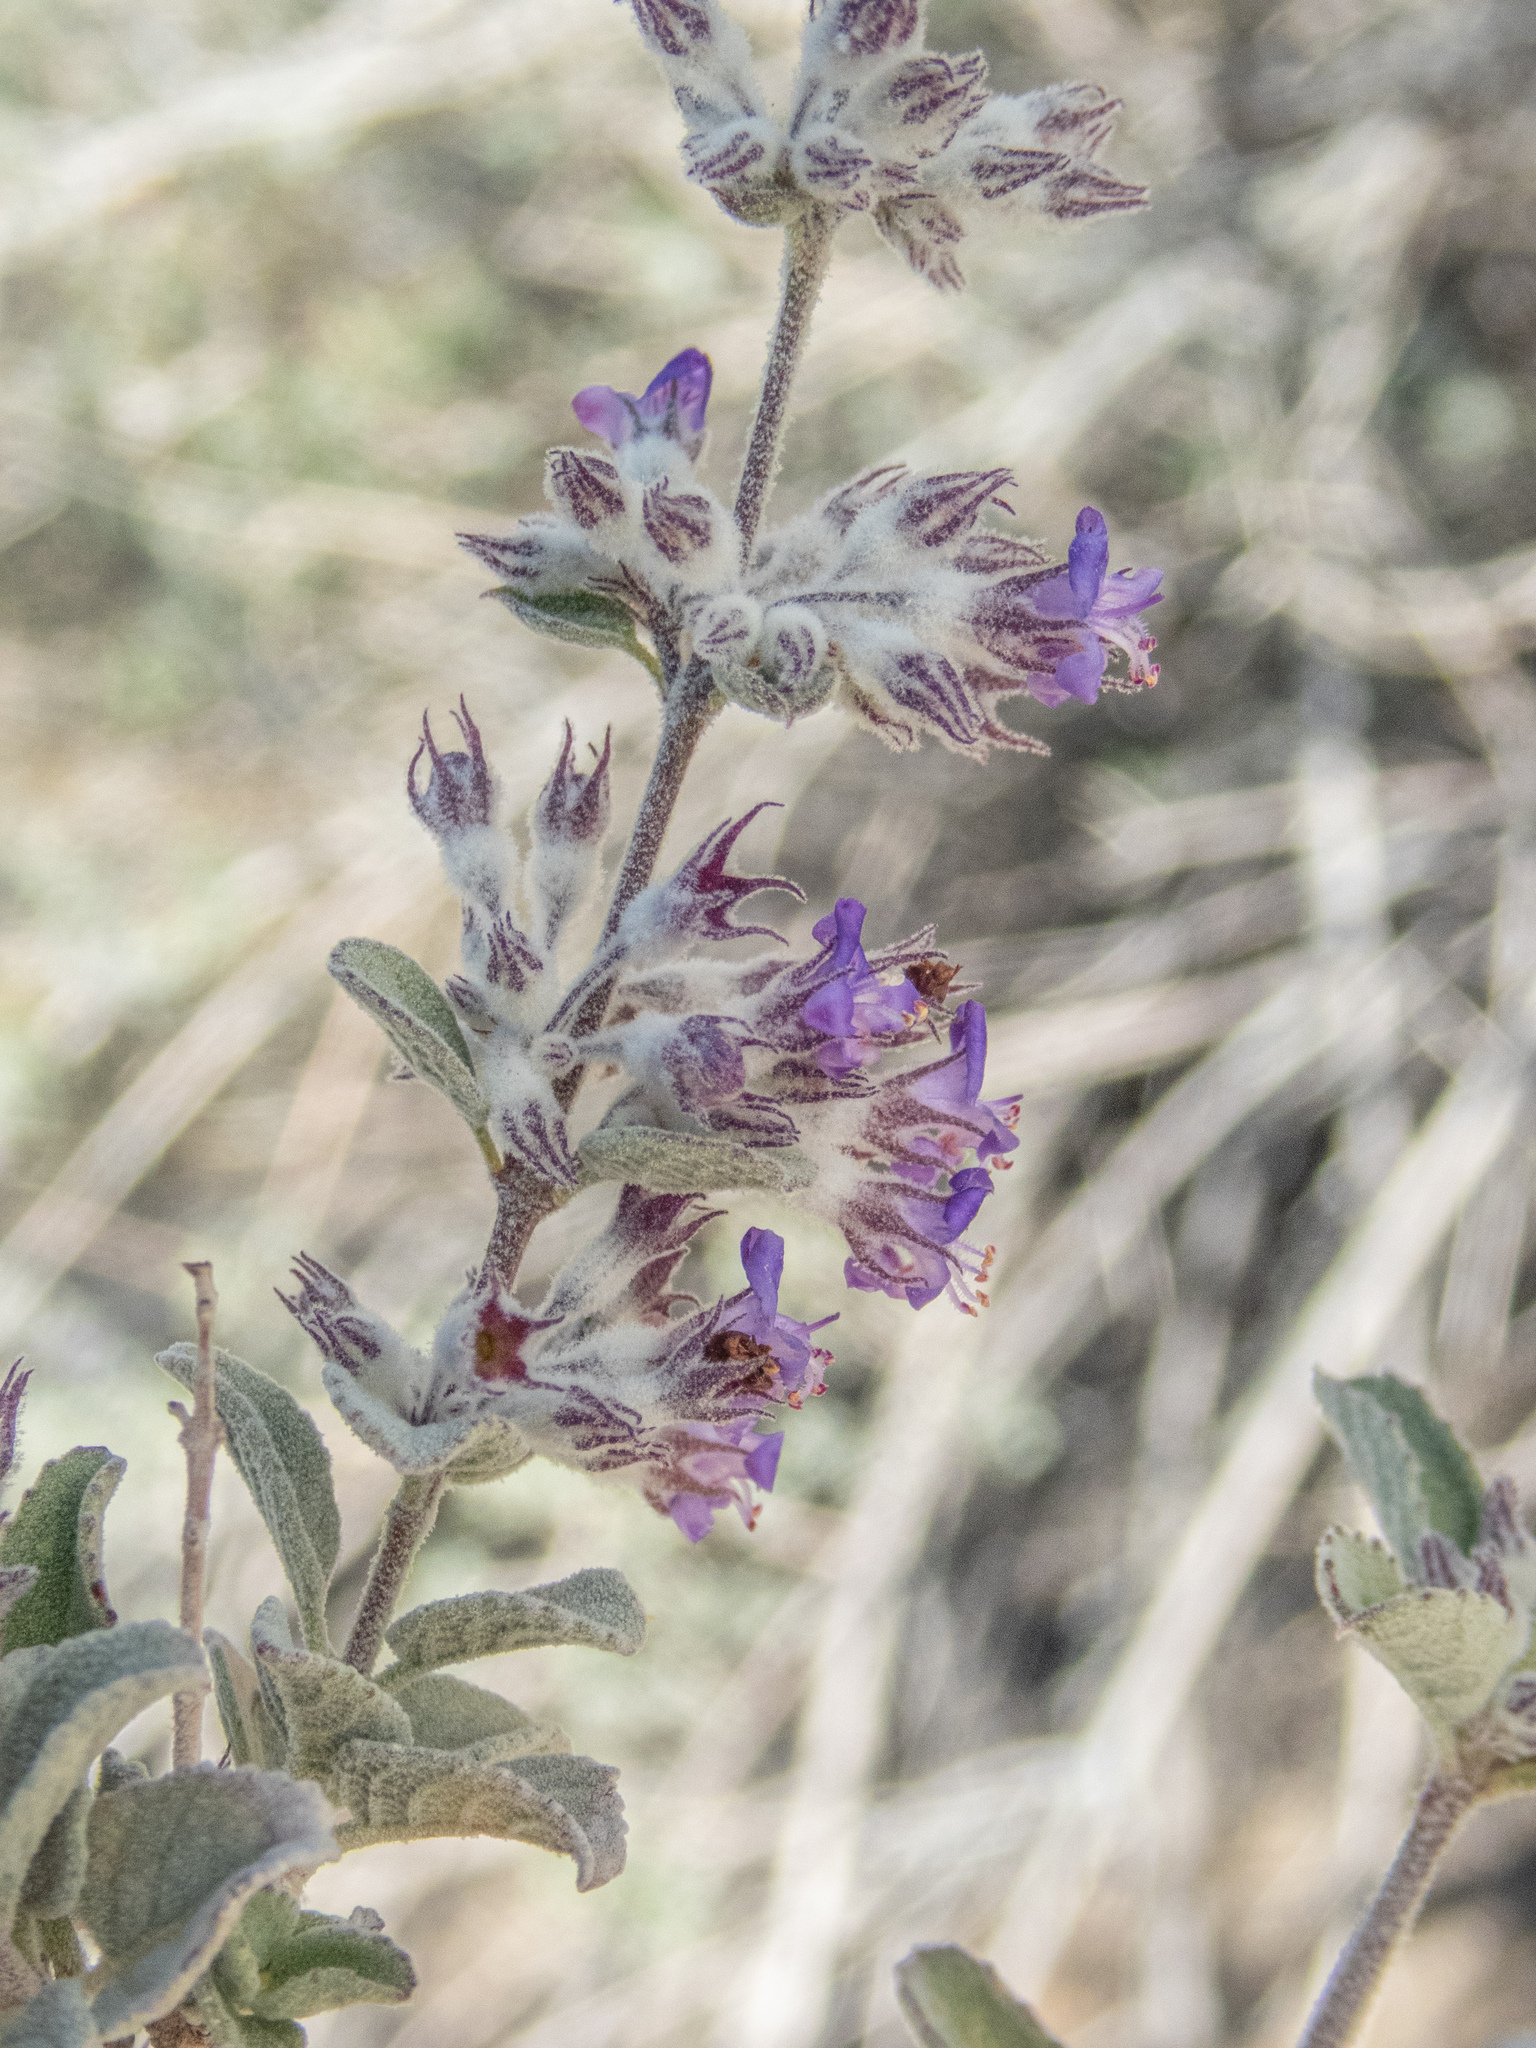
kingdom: Plantae
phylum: Tracheophyta
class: Magnoliopsida
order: Lamiales
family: Lamiaceae
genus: Condea
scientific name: Condea emoryi
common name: Chia
